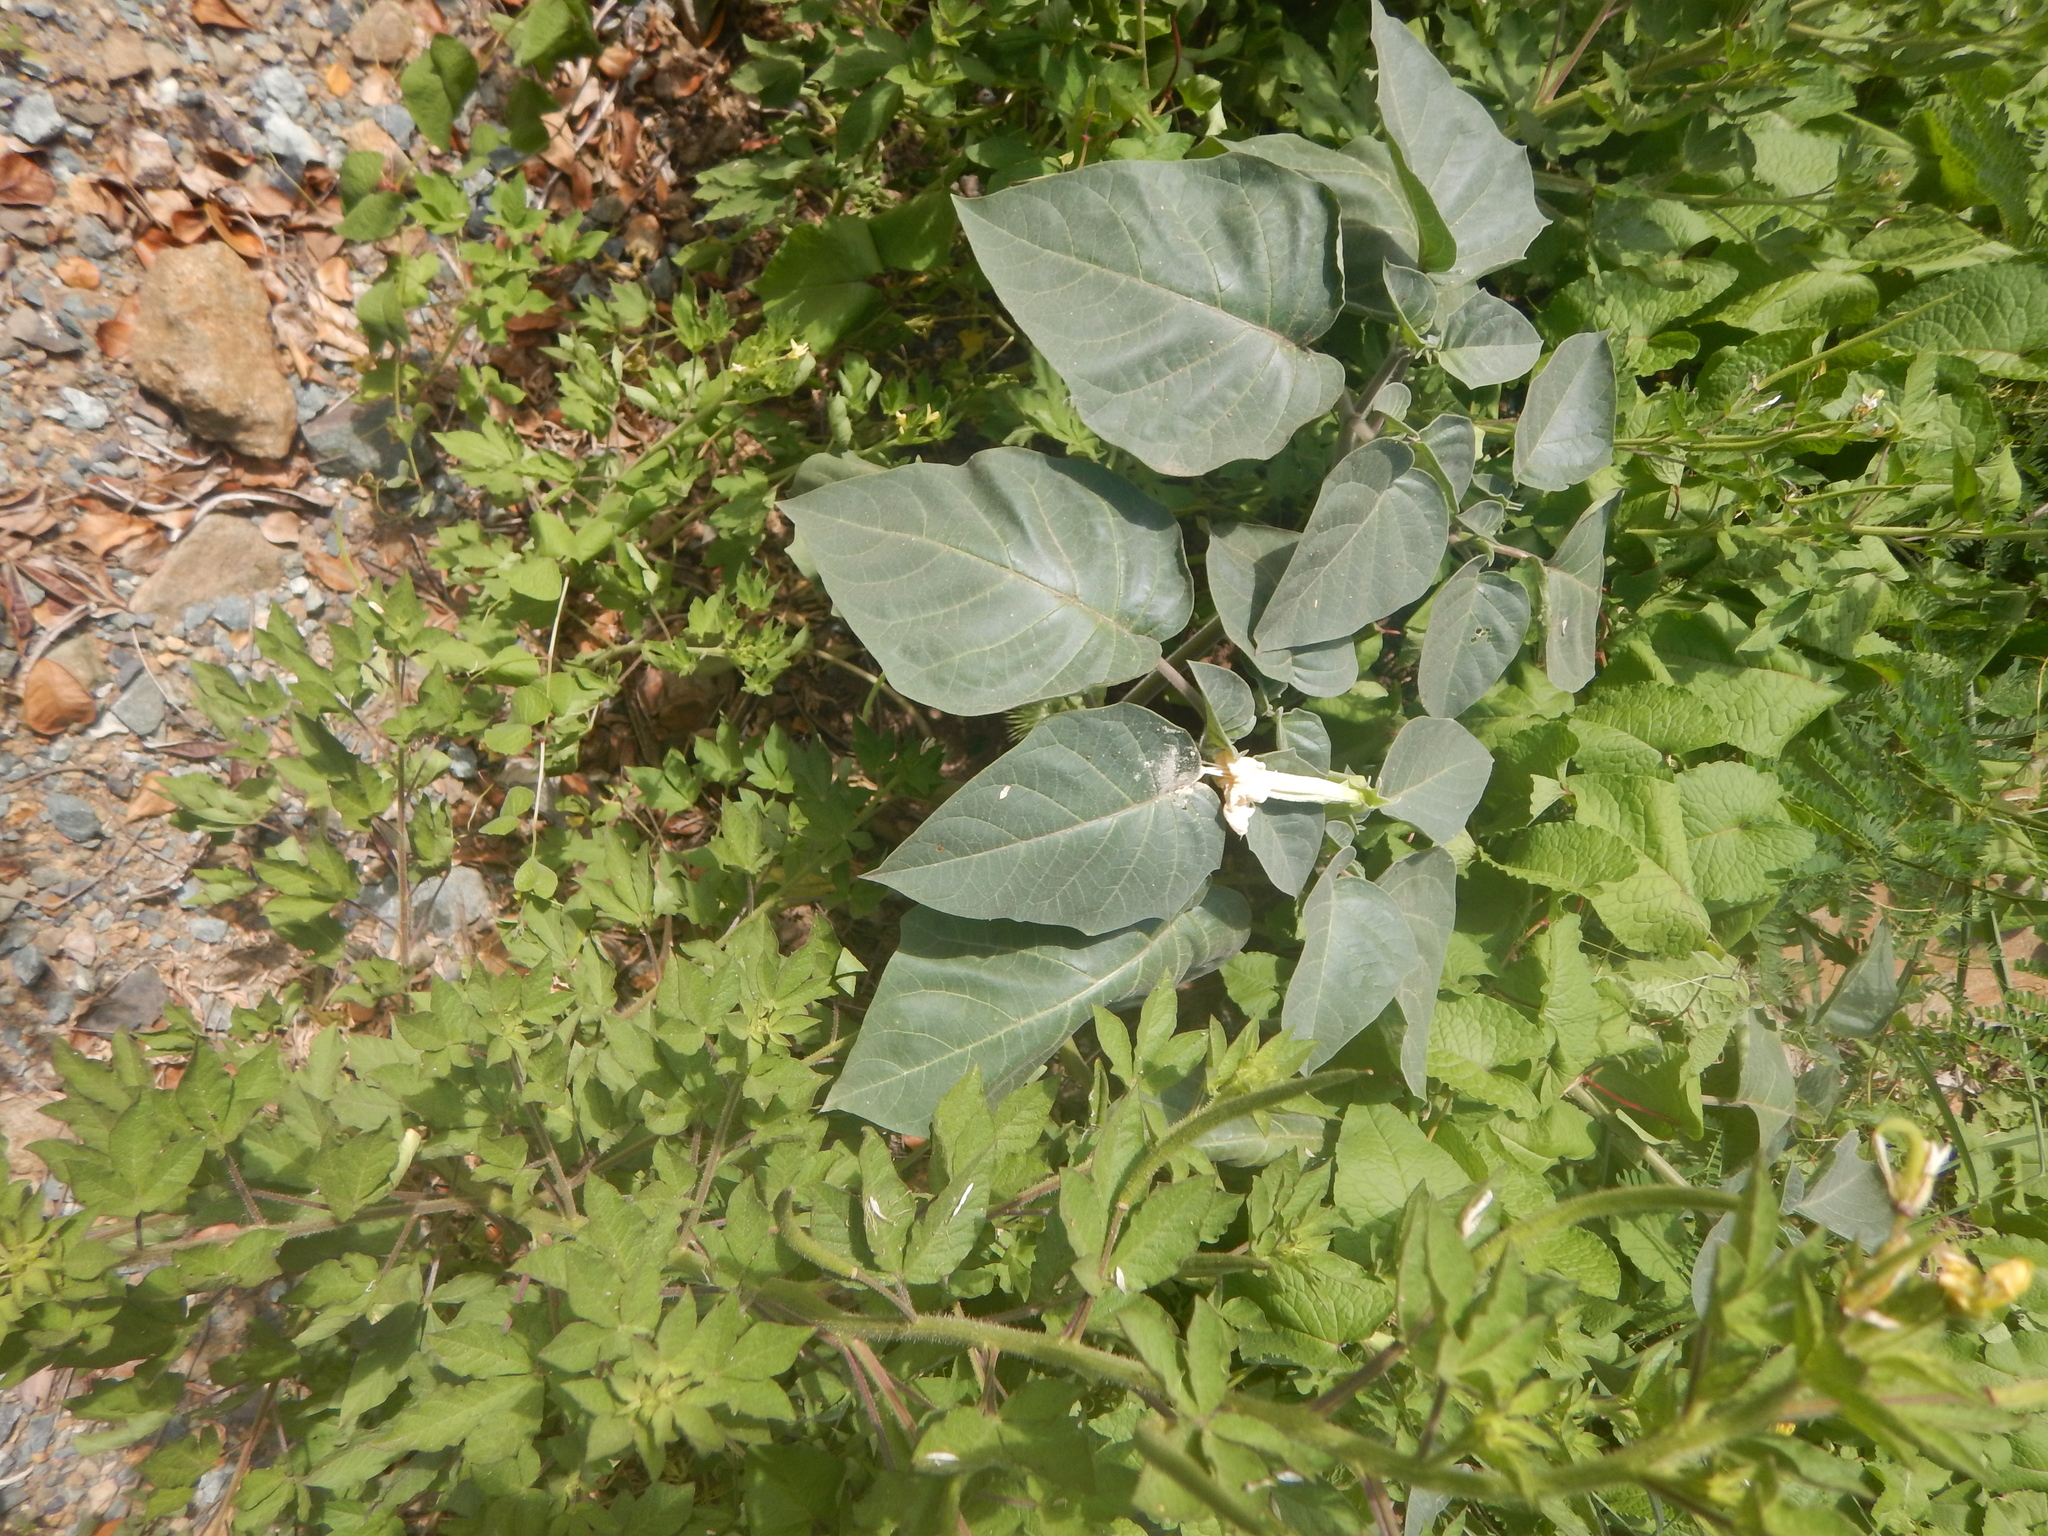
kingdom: Plantae
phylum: Tracheophyta
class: Magnoliopsida
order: Solanales
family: Solanaceae
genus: Datura
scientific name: Datura innoxia
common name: Downy thorn-apple
